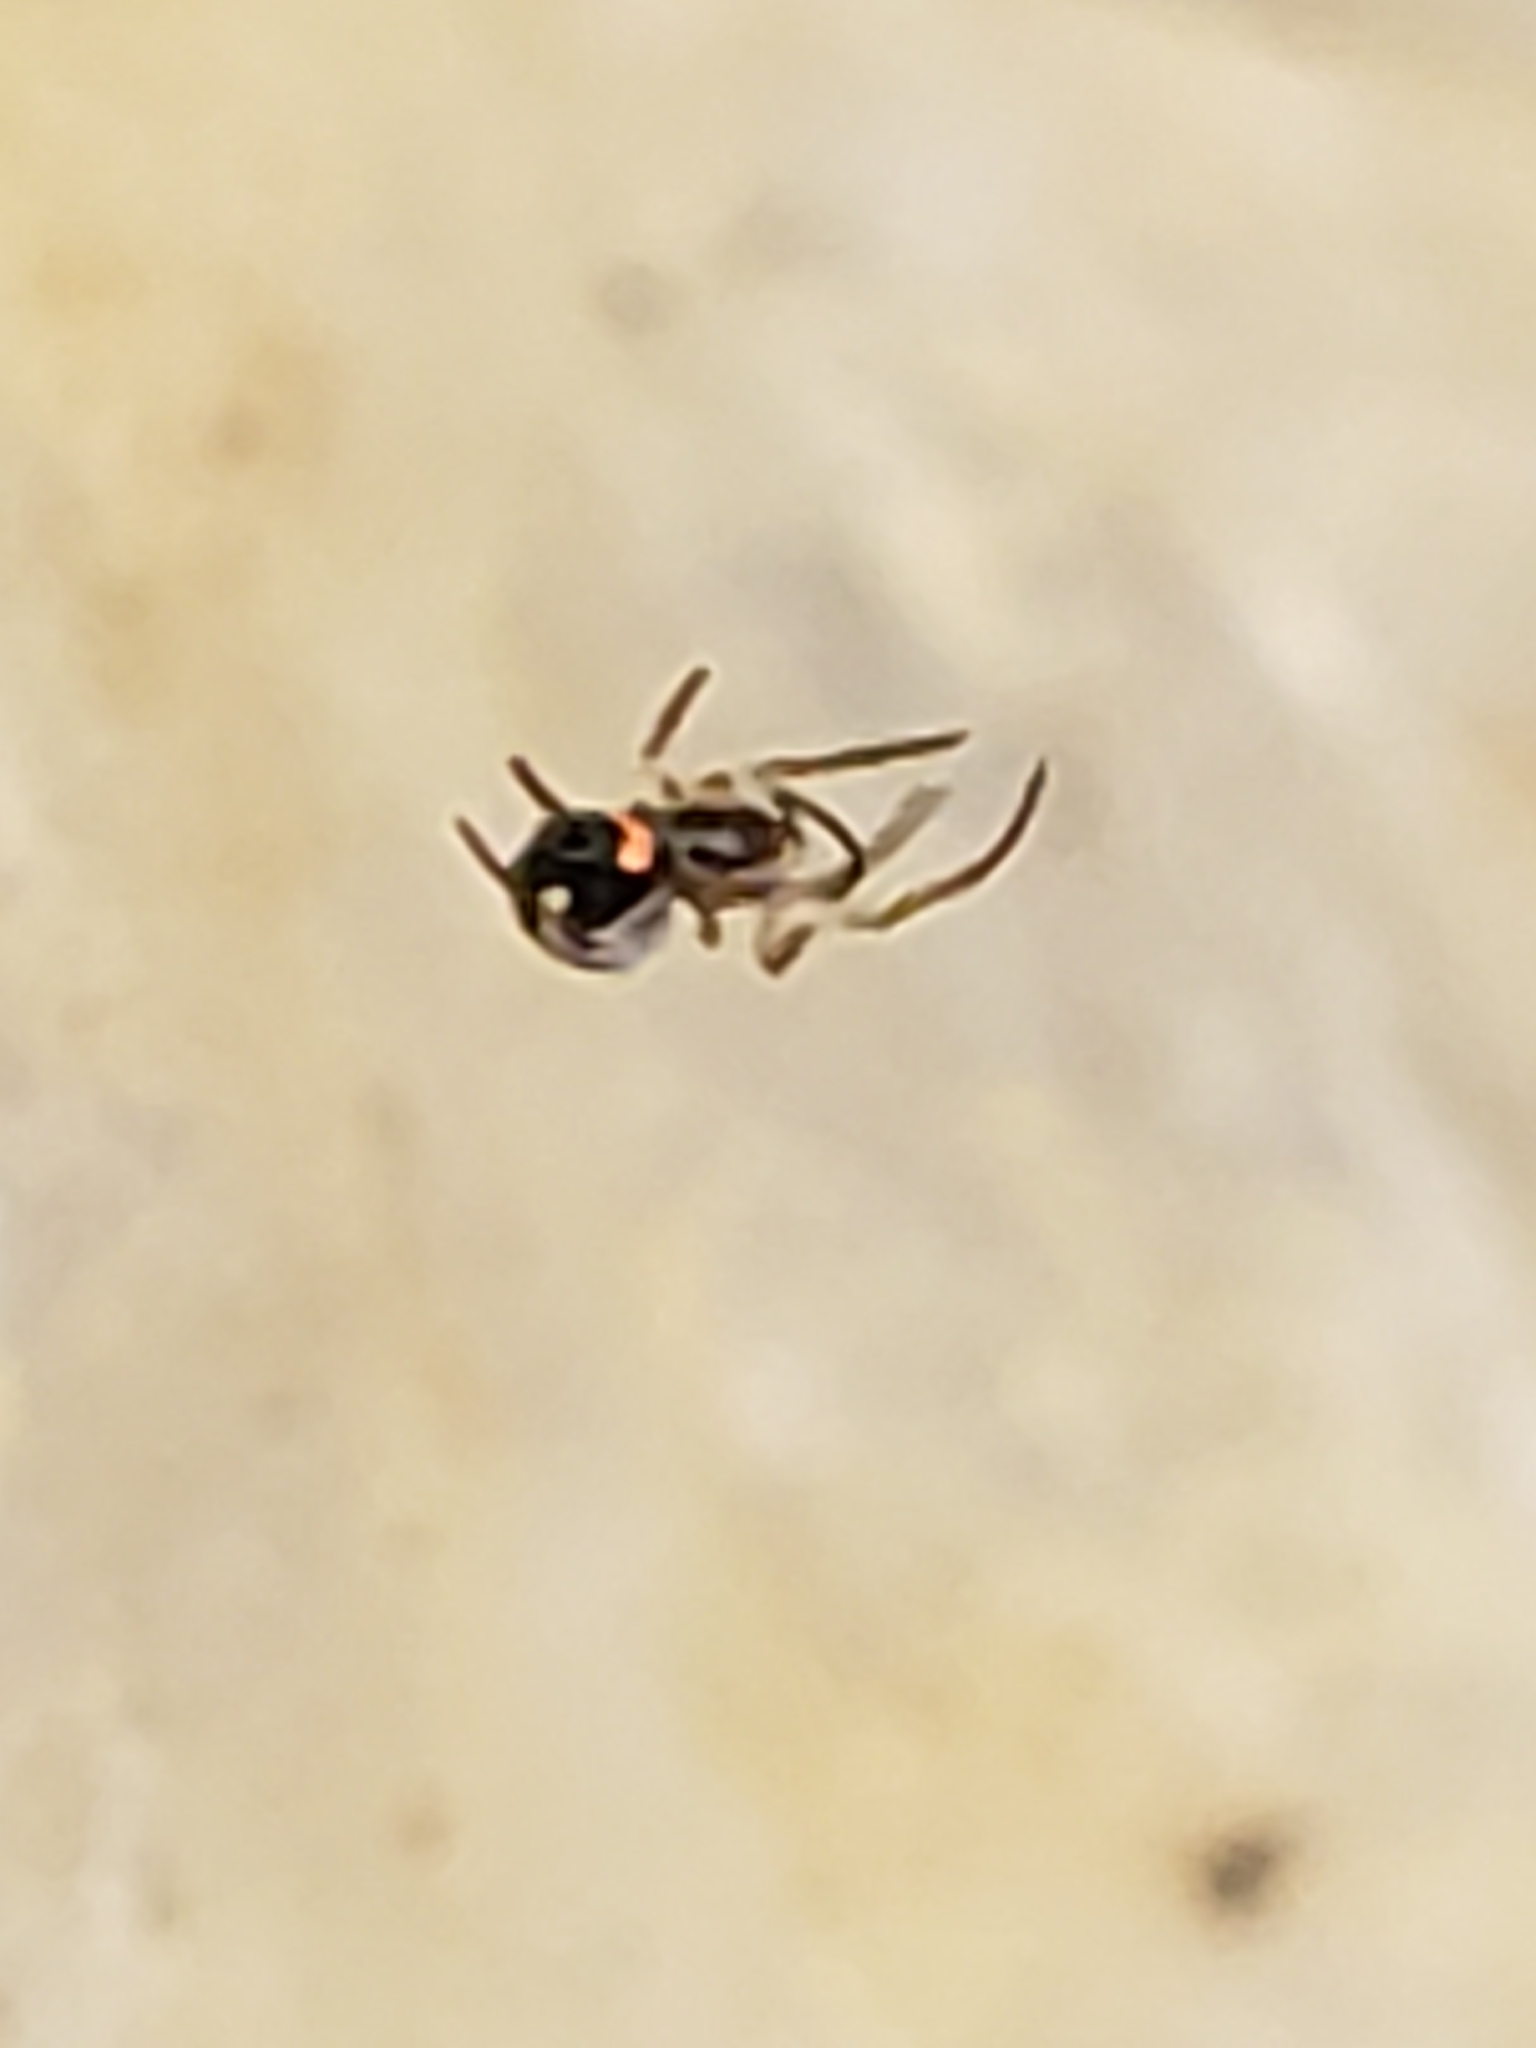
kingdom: Animalia
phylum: Arthropoda
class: Arachnida
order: Araneae
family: Tetragnathidae
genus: Leucauge
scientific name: Leucauge venusta
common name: Longjawed orb weavers
